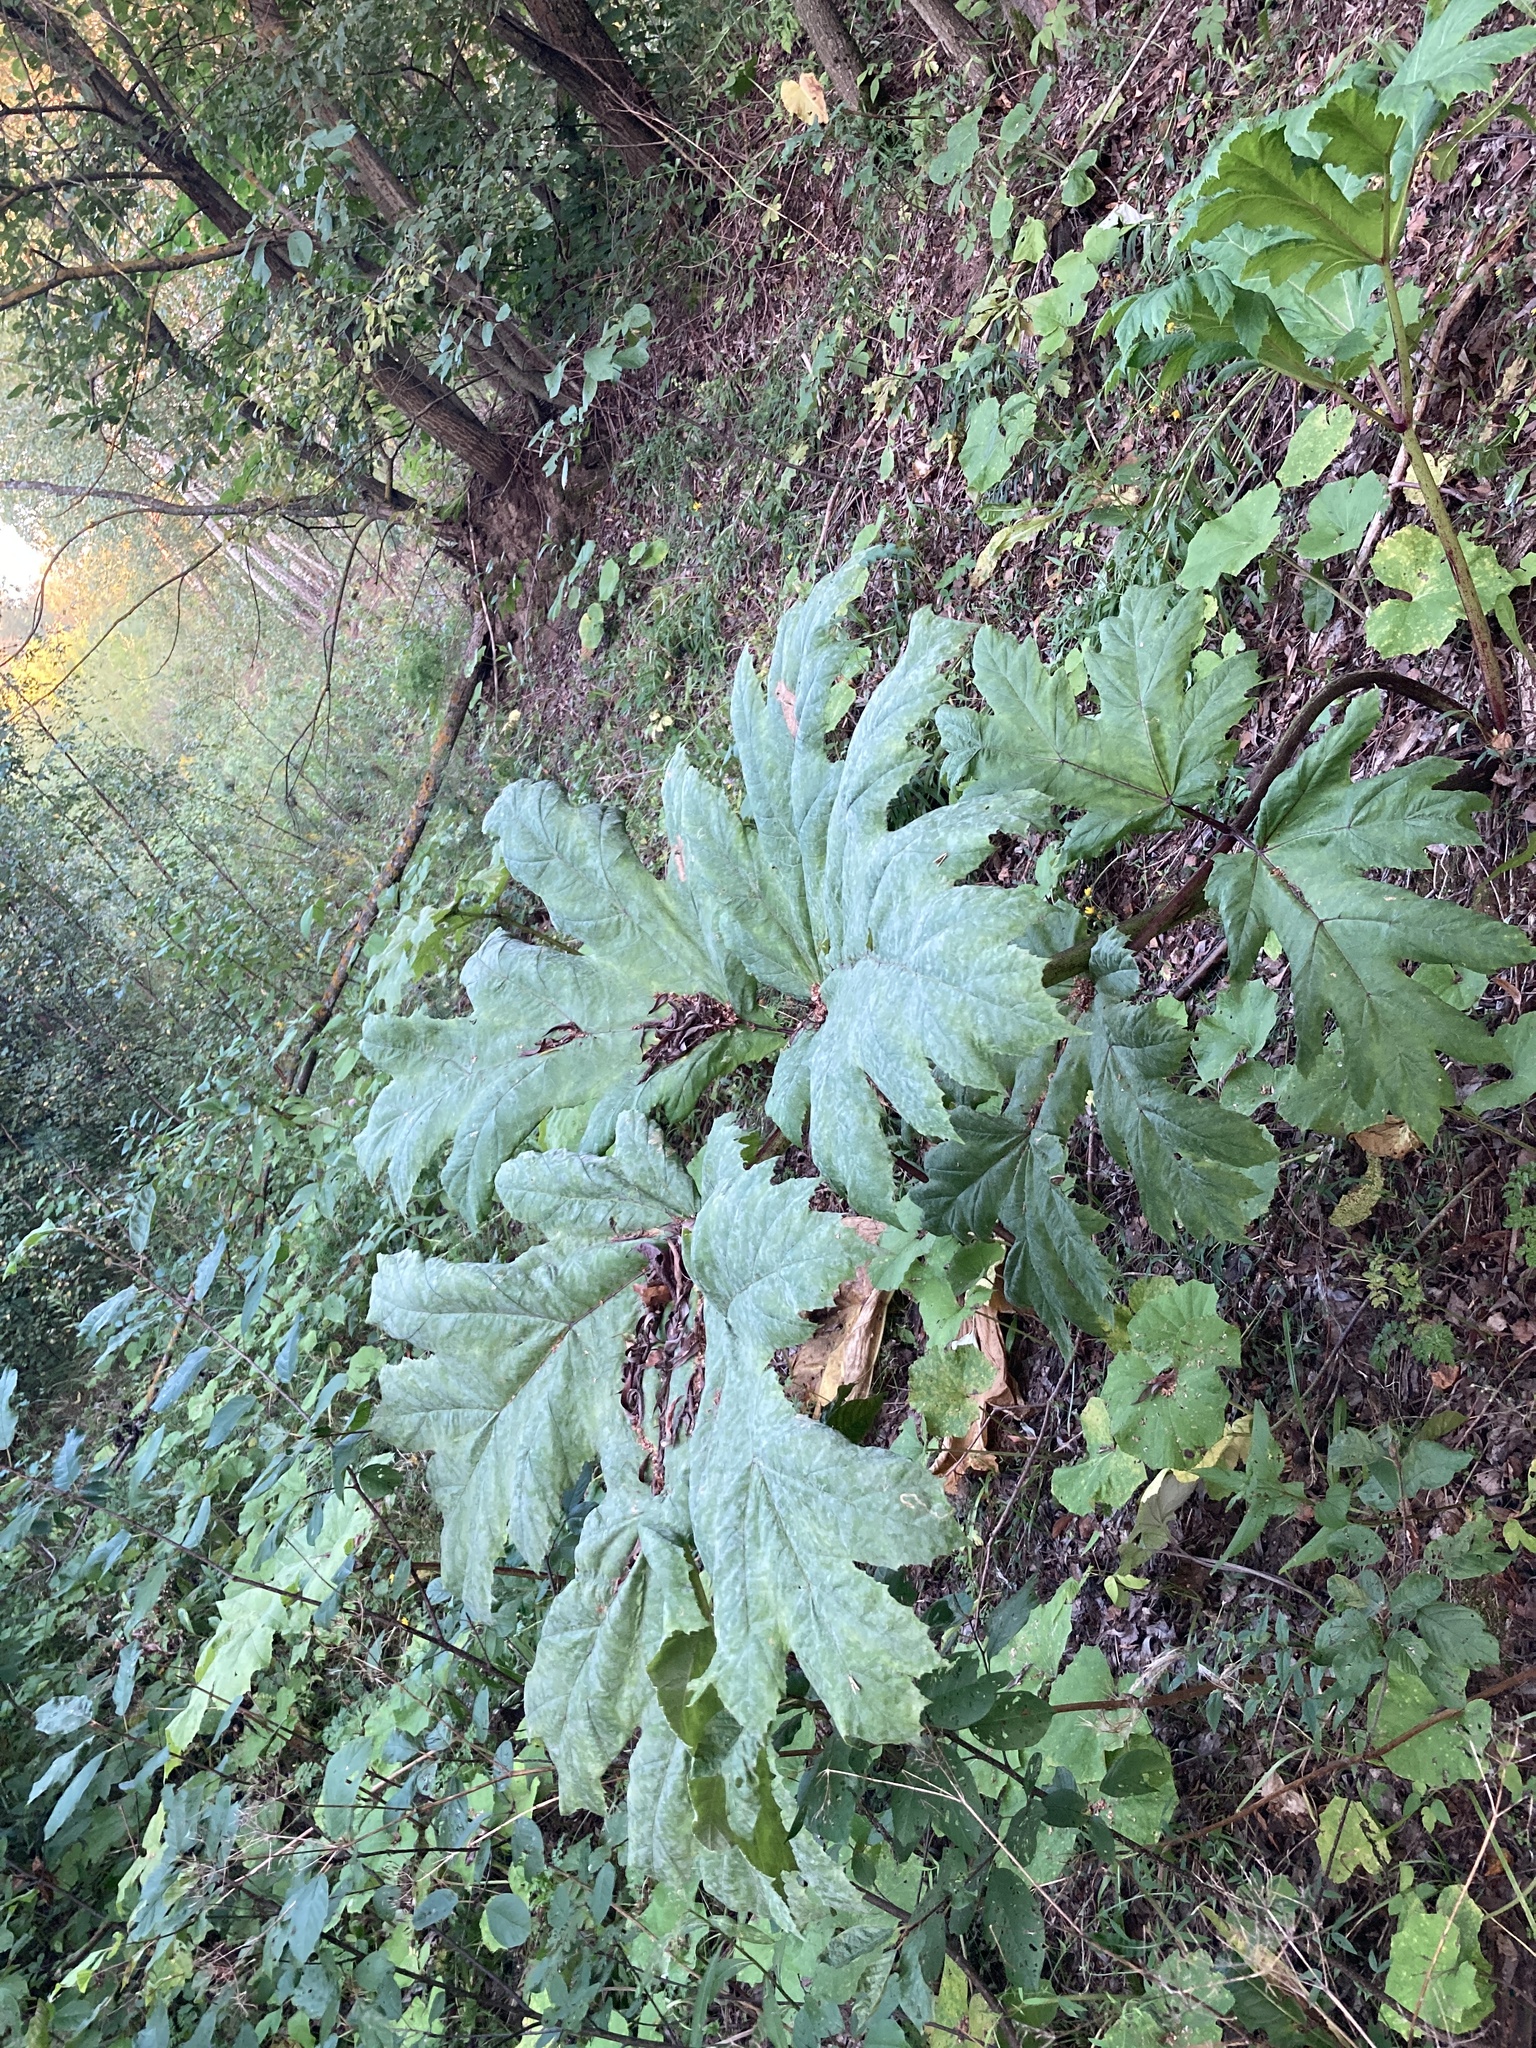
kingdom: Plantae
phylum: Tracheophyta
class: Magnoliopsida
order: Apiales
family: Apiaceae
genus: Heracleum
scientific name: Heracleum sosnowskyi
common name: Sosnowsky's hogweed
